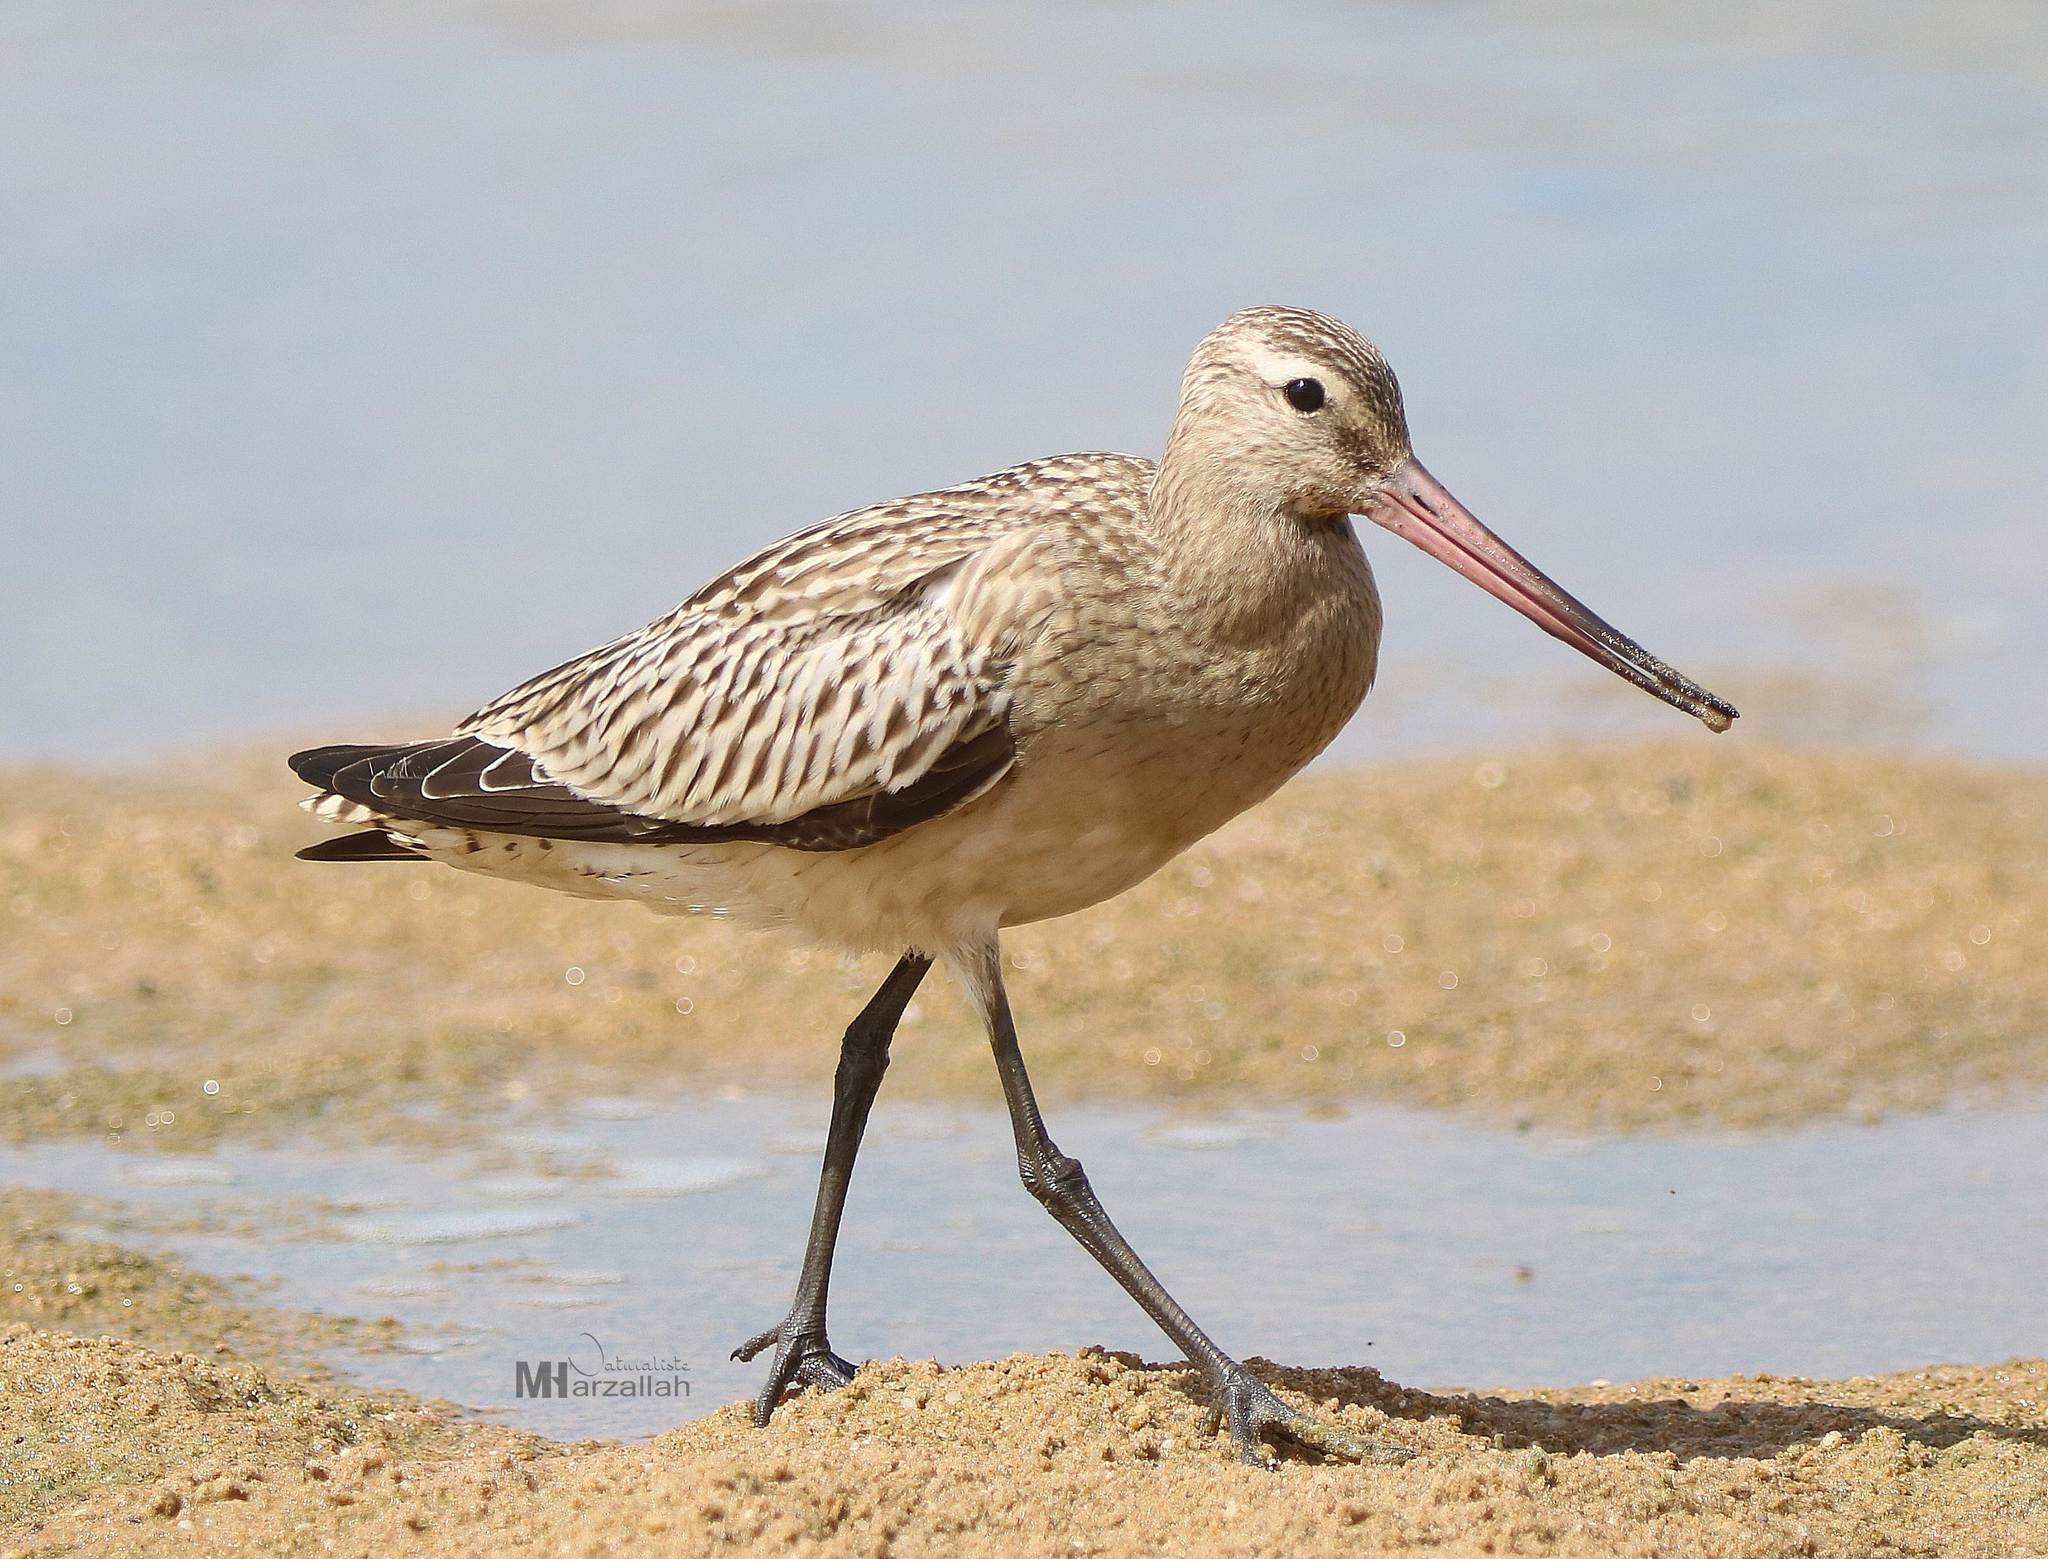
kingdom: Animalia
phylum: Chordata
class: Aves
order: Charadriiformes
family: Scolopacidae
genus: Limosa
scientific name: Limosa lapponica
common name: Bar-tailed godwit
